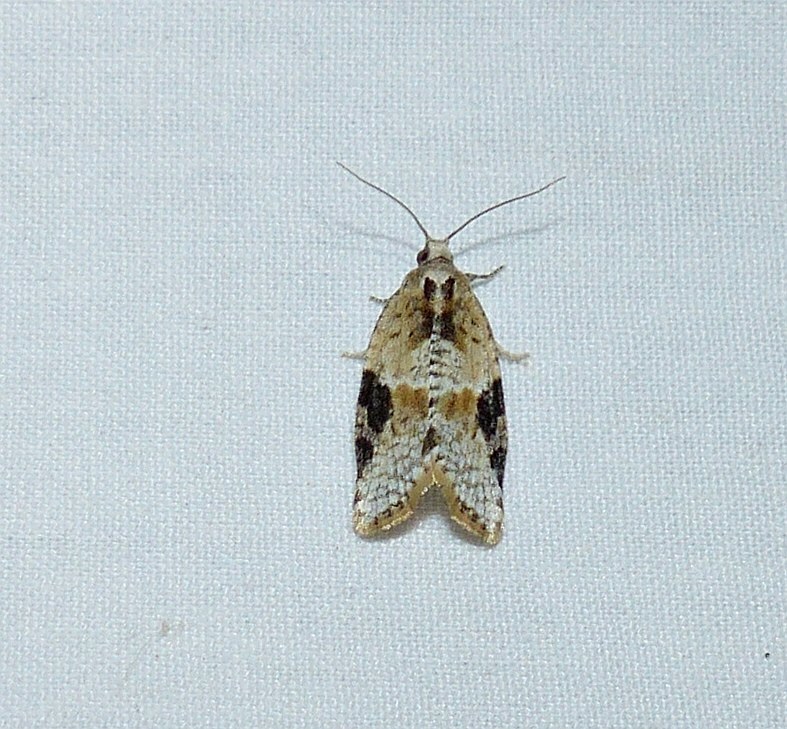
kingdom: Animalia
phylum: Arthropoda
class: Insecta
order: Lepidoptera
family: Tortricidae
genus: Argyrotaenia
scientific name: Argyrotaenia mariana
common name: Gray-banded leafroller moth
